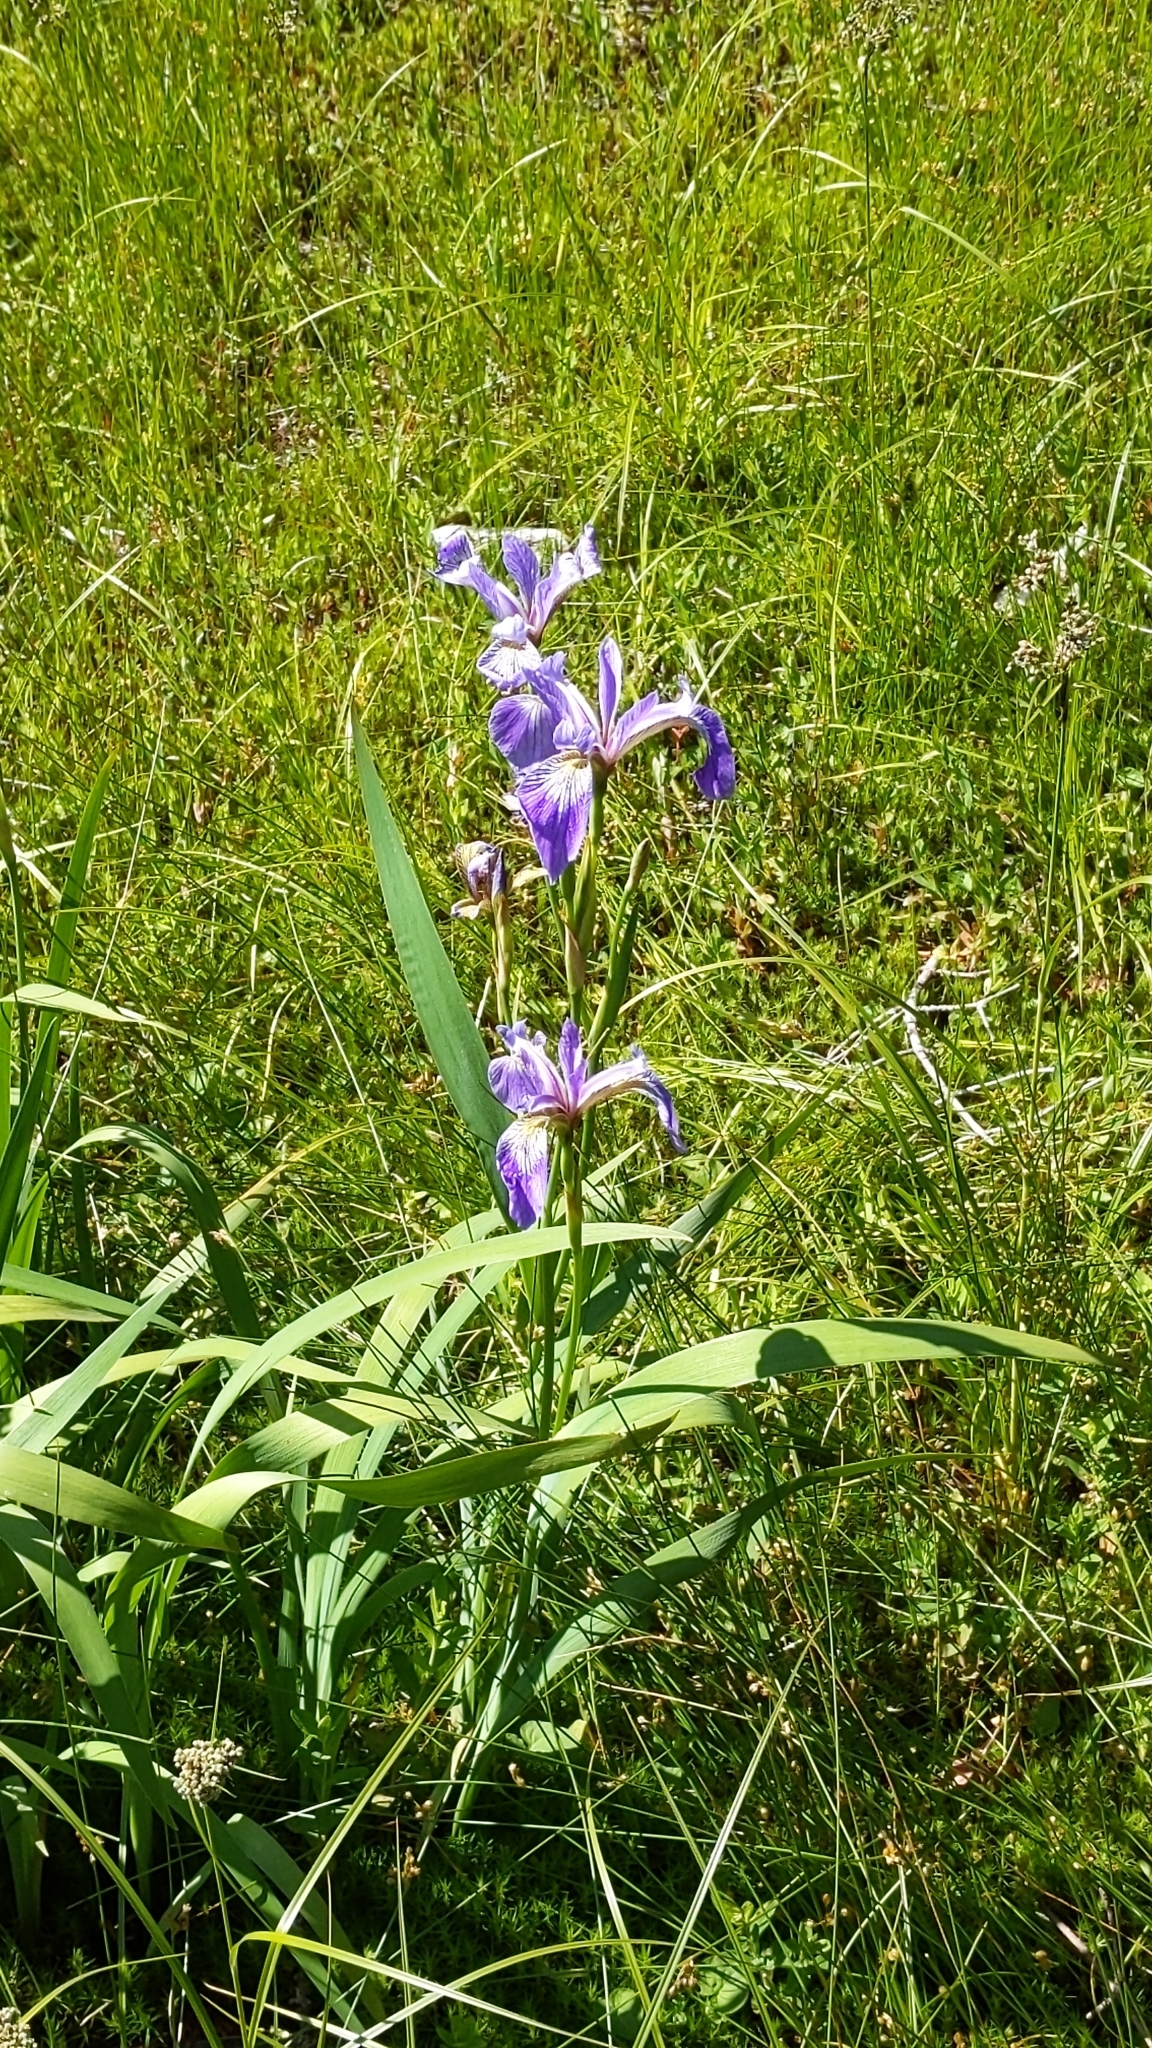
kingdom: Plantae
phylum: Tracheophyta
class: Liliopsida
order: Asparagales
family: Iridaceae
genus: Iris
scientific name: Iris versicolor
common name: Purple iris
